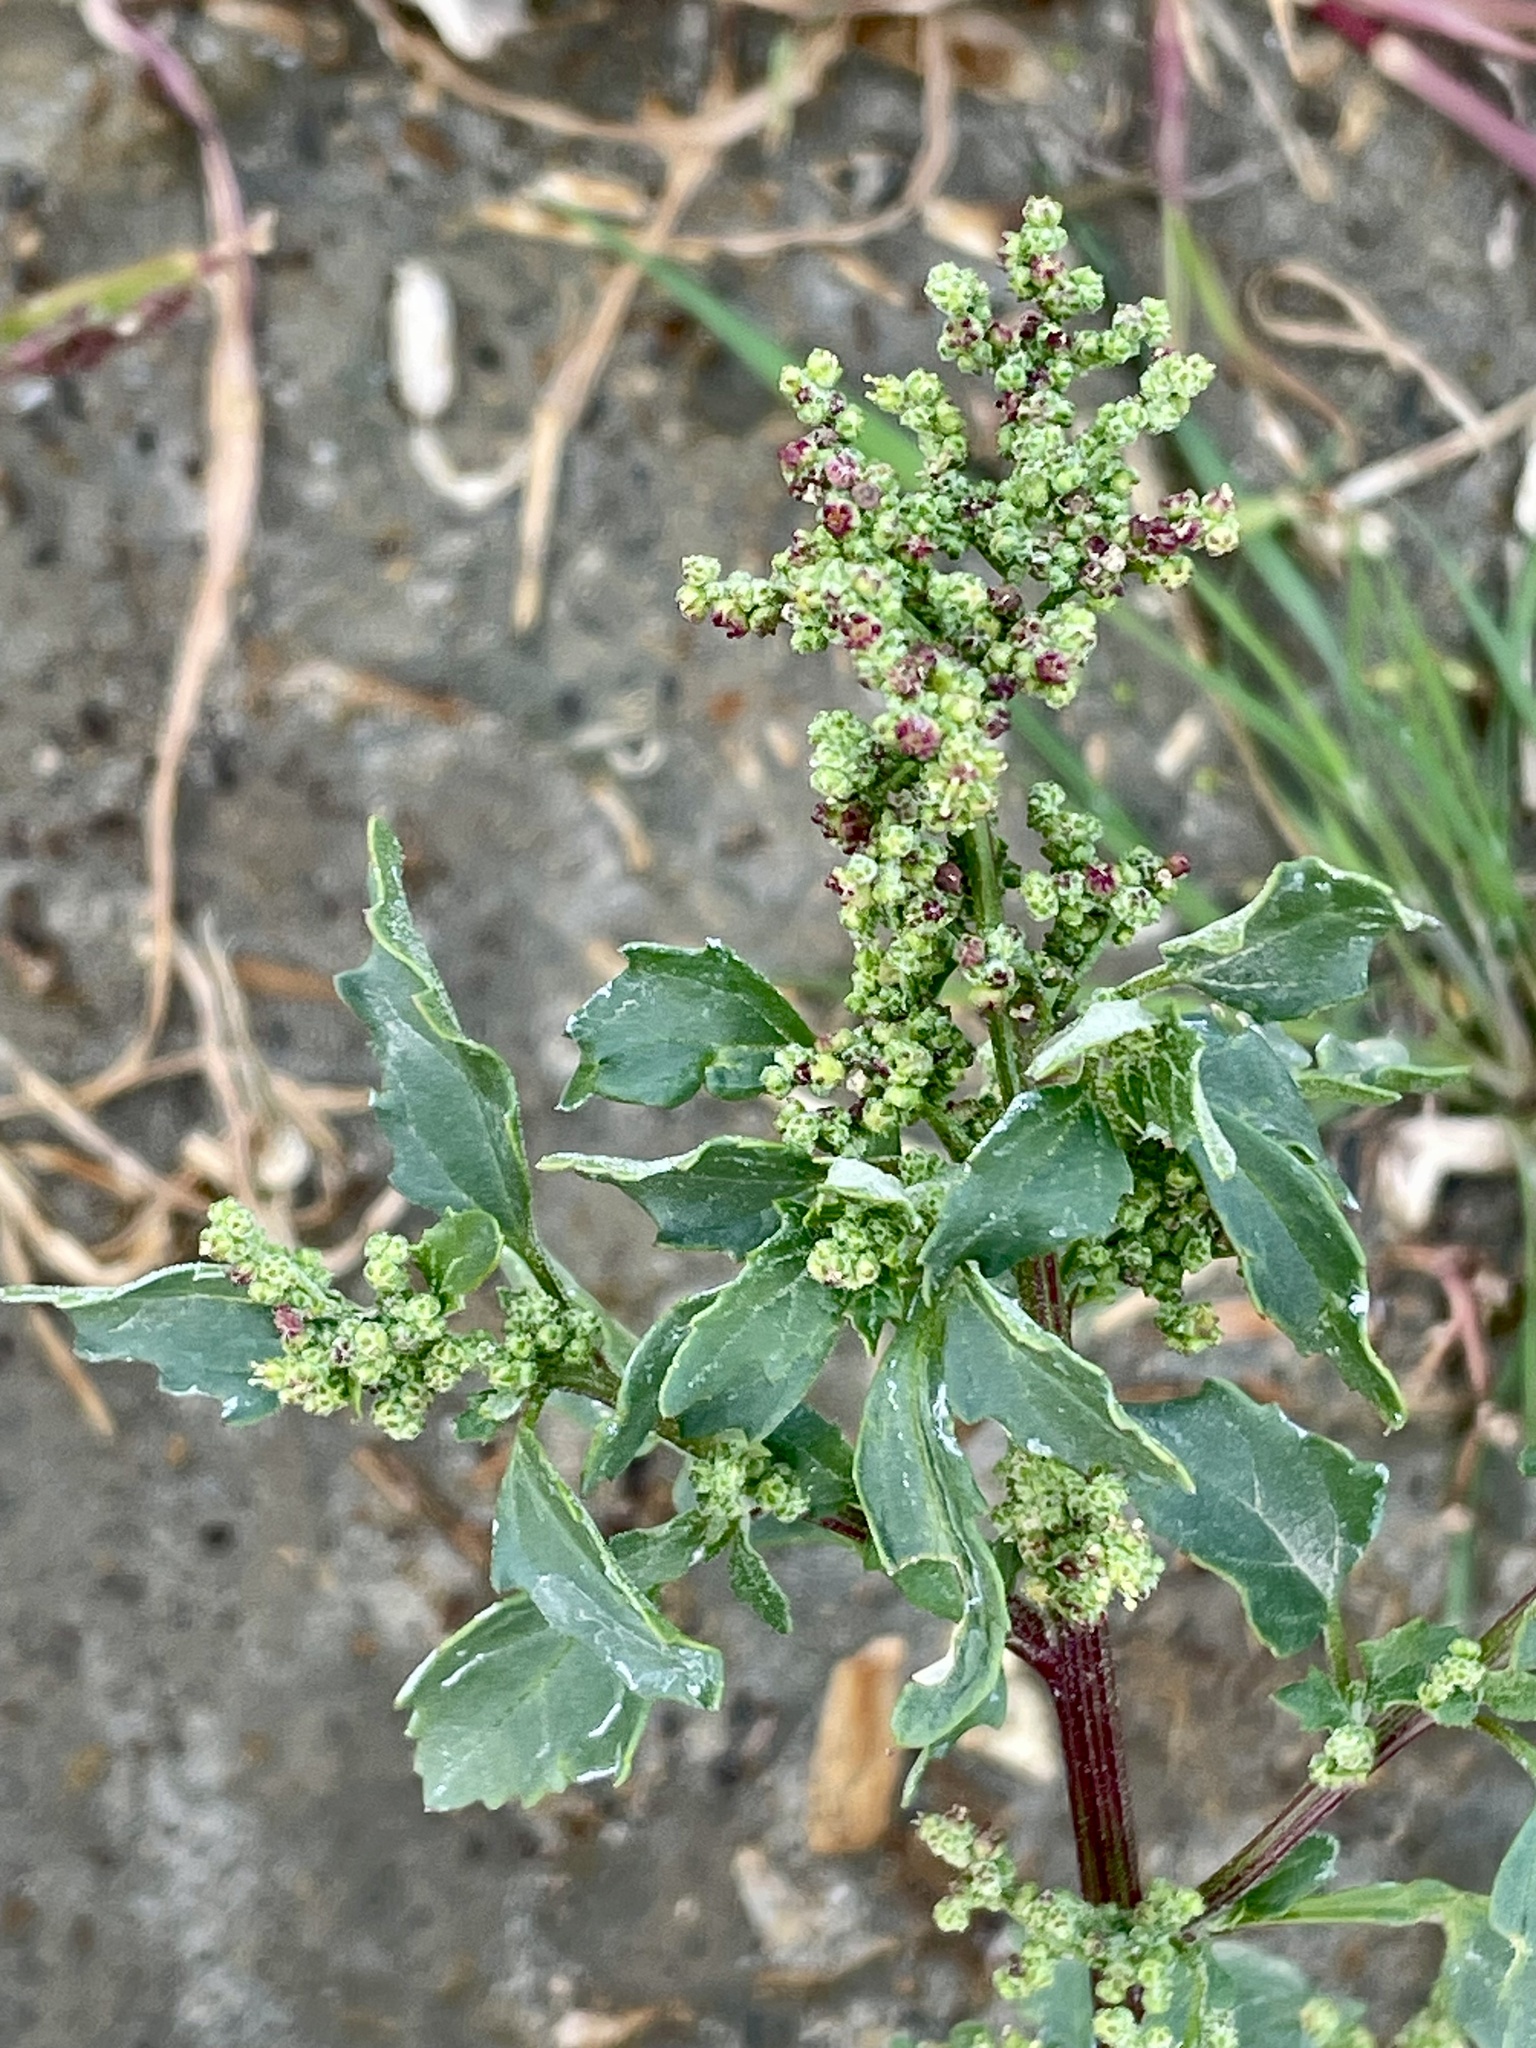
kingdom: Plantae
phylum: Tracheophyta
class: Magnoliopsida
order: Caryophyllales
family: Amaranthaceae
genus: Chenopodiastrum
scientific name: Chenopodiastrum murale
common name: Sowbane
